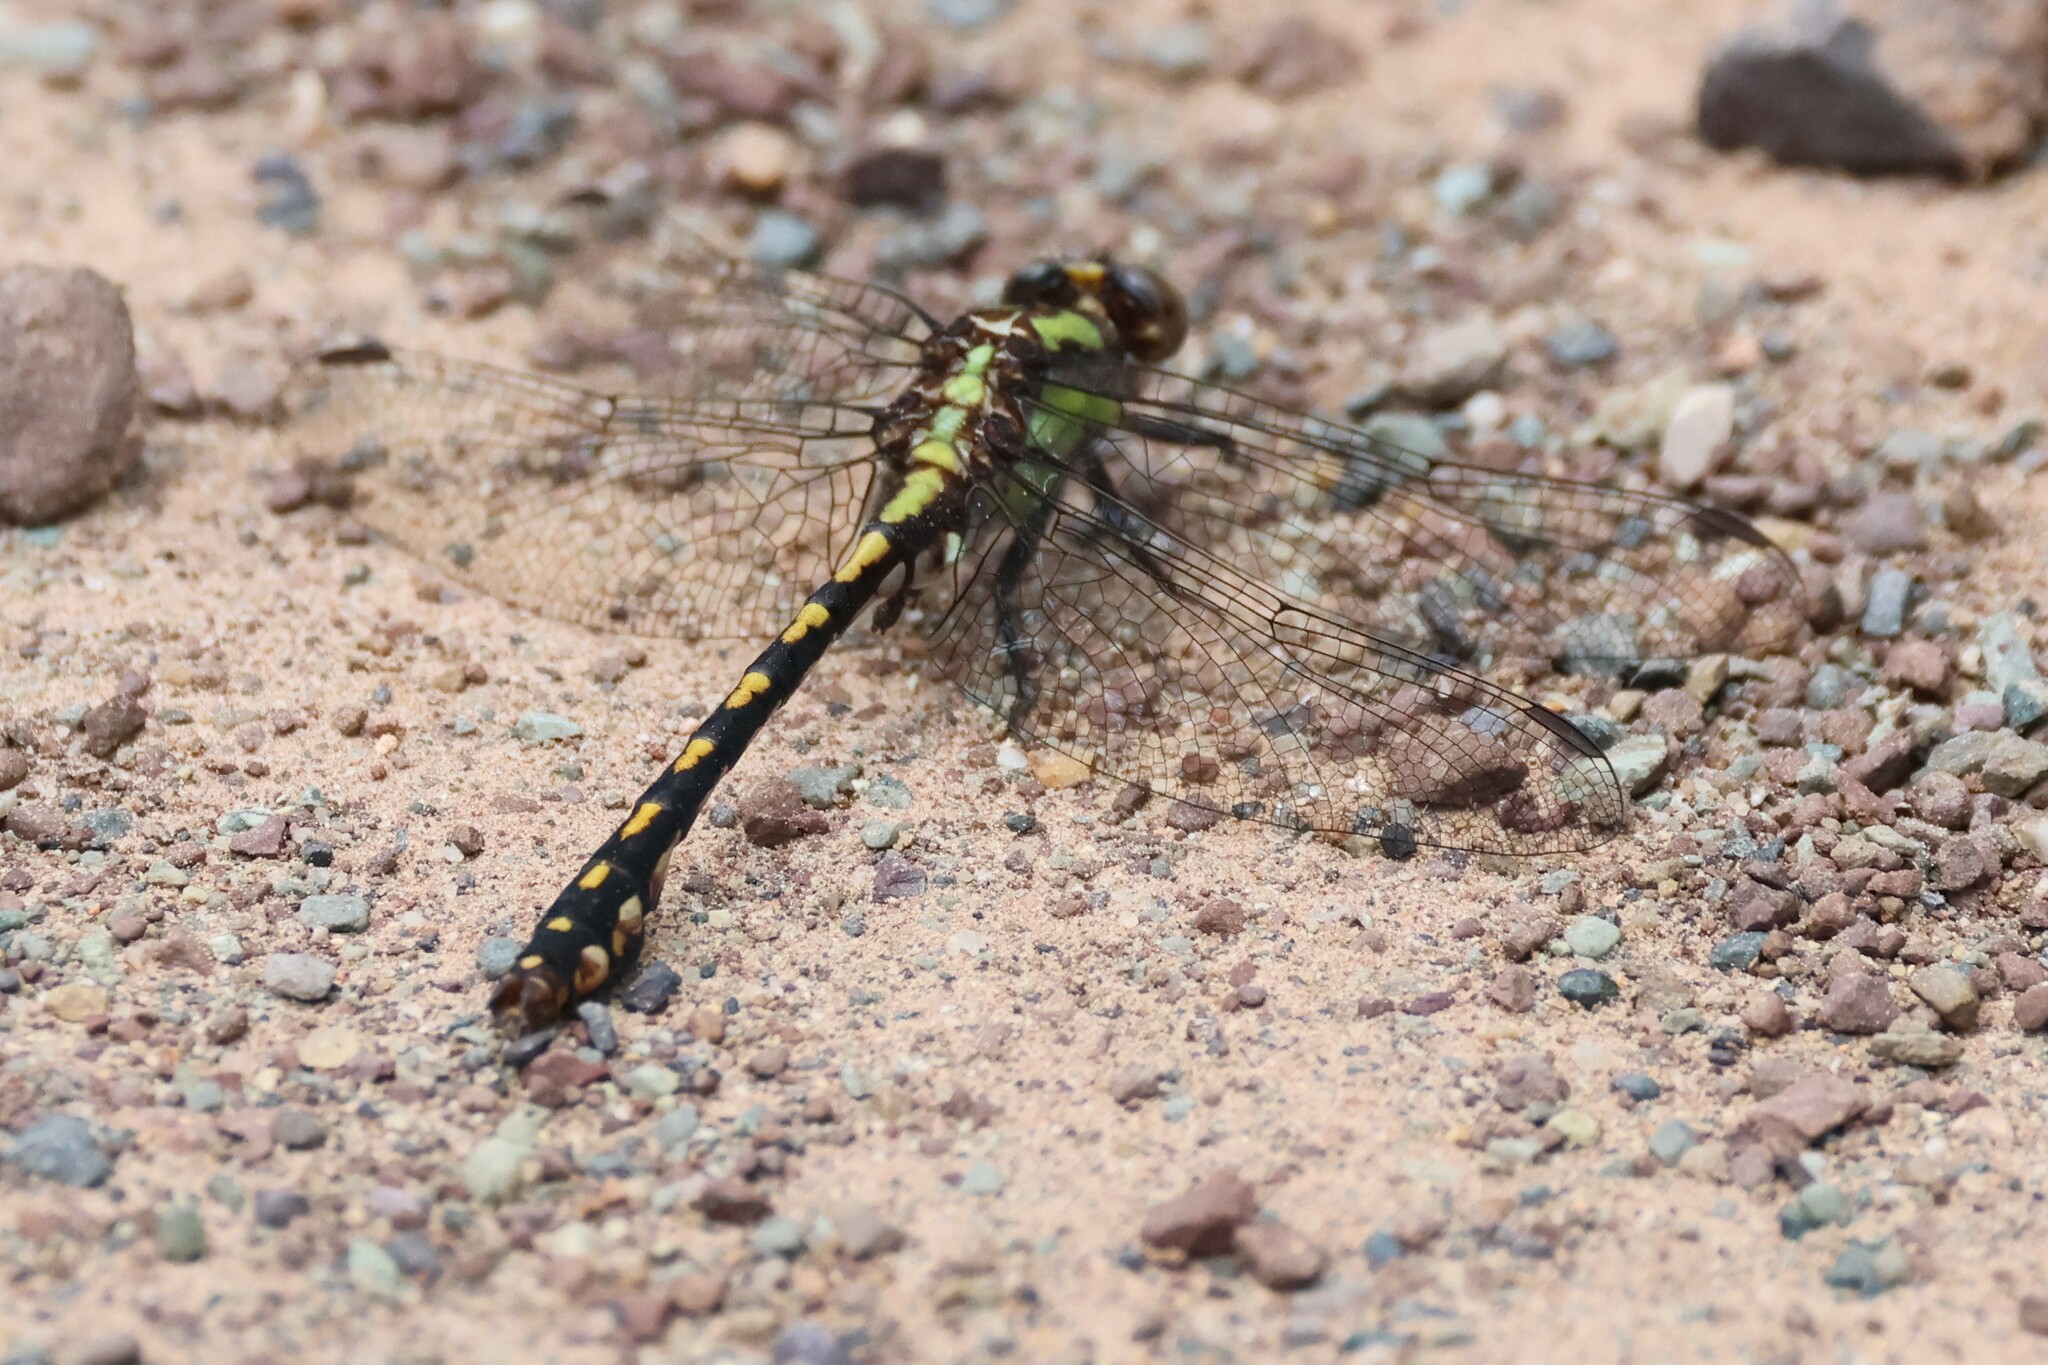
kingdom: Animalia
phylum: Arthropoda
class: Insecta
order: Odonata
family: Gomphidae
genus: Ophiogomphus
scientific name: Ophiogomphus carolus
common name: Riffle snaketail
